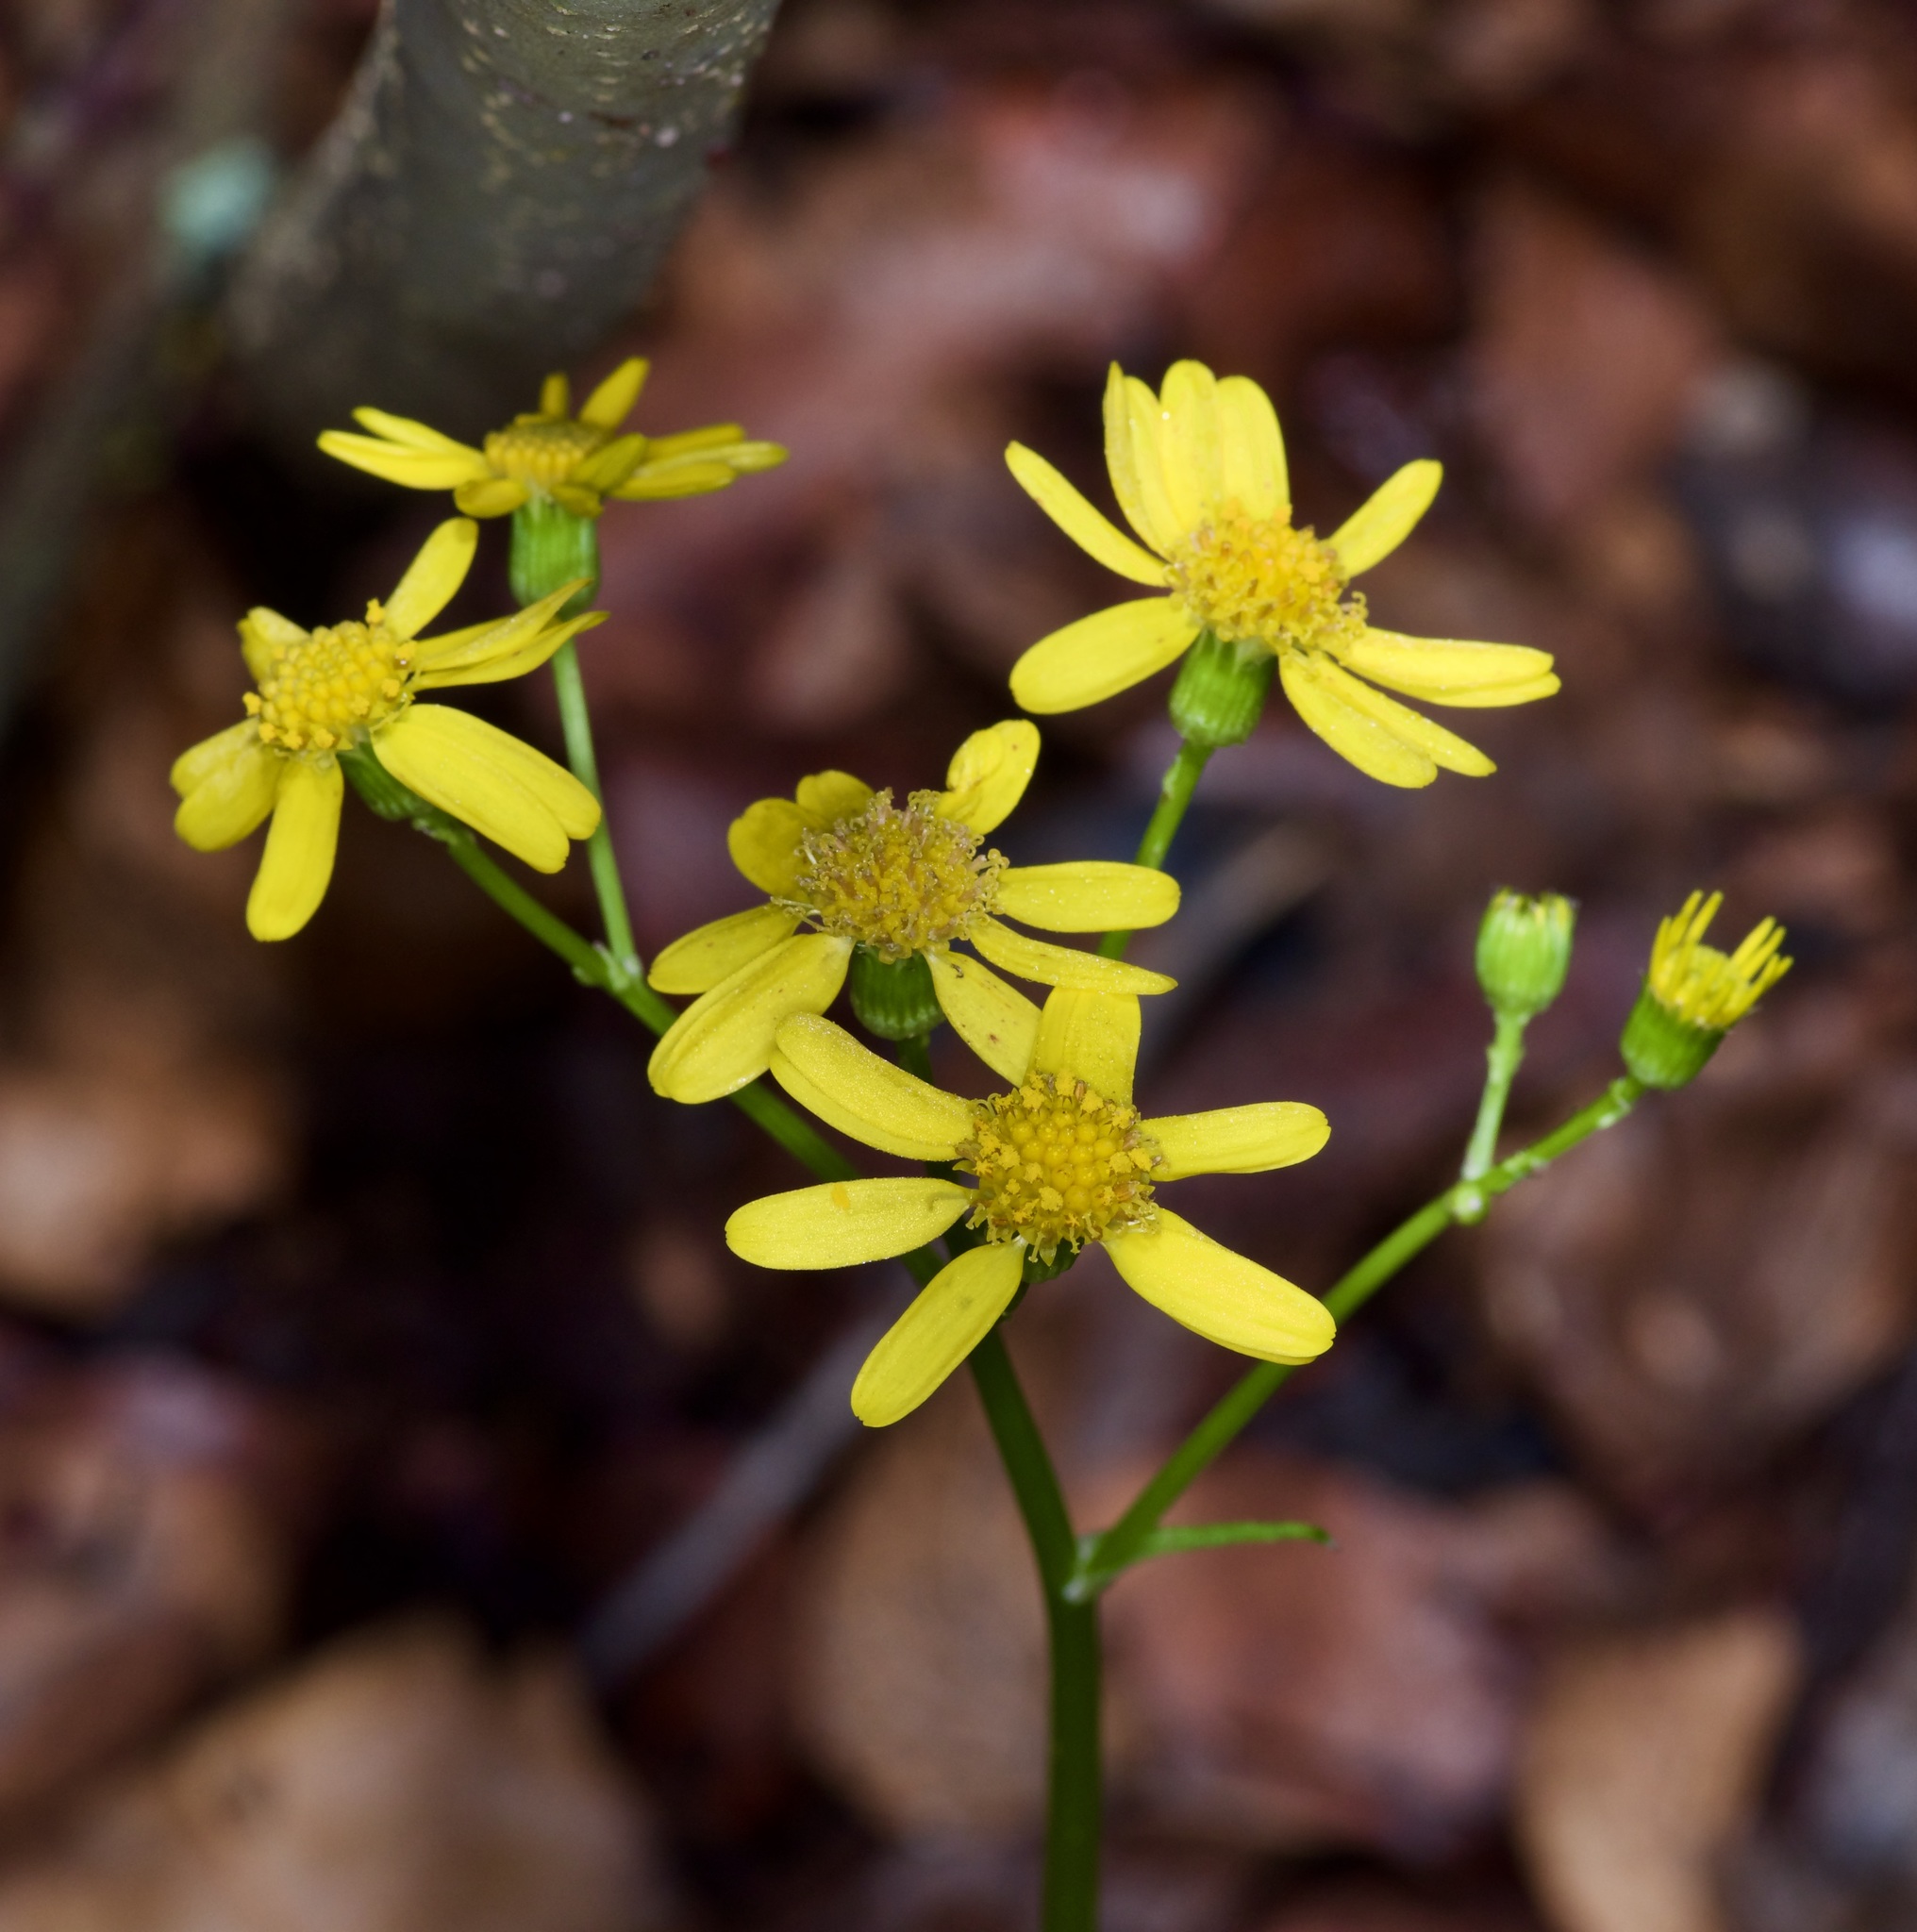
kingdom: Plantae
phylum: Tracheophyta
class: Magnoliopsida
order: Asterales
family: Asteraceae
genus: Packera
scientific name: Packera obovata
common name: Round-leaf ragwort
